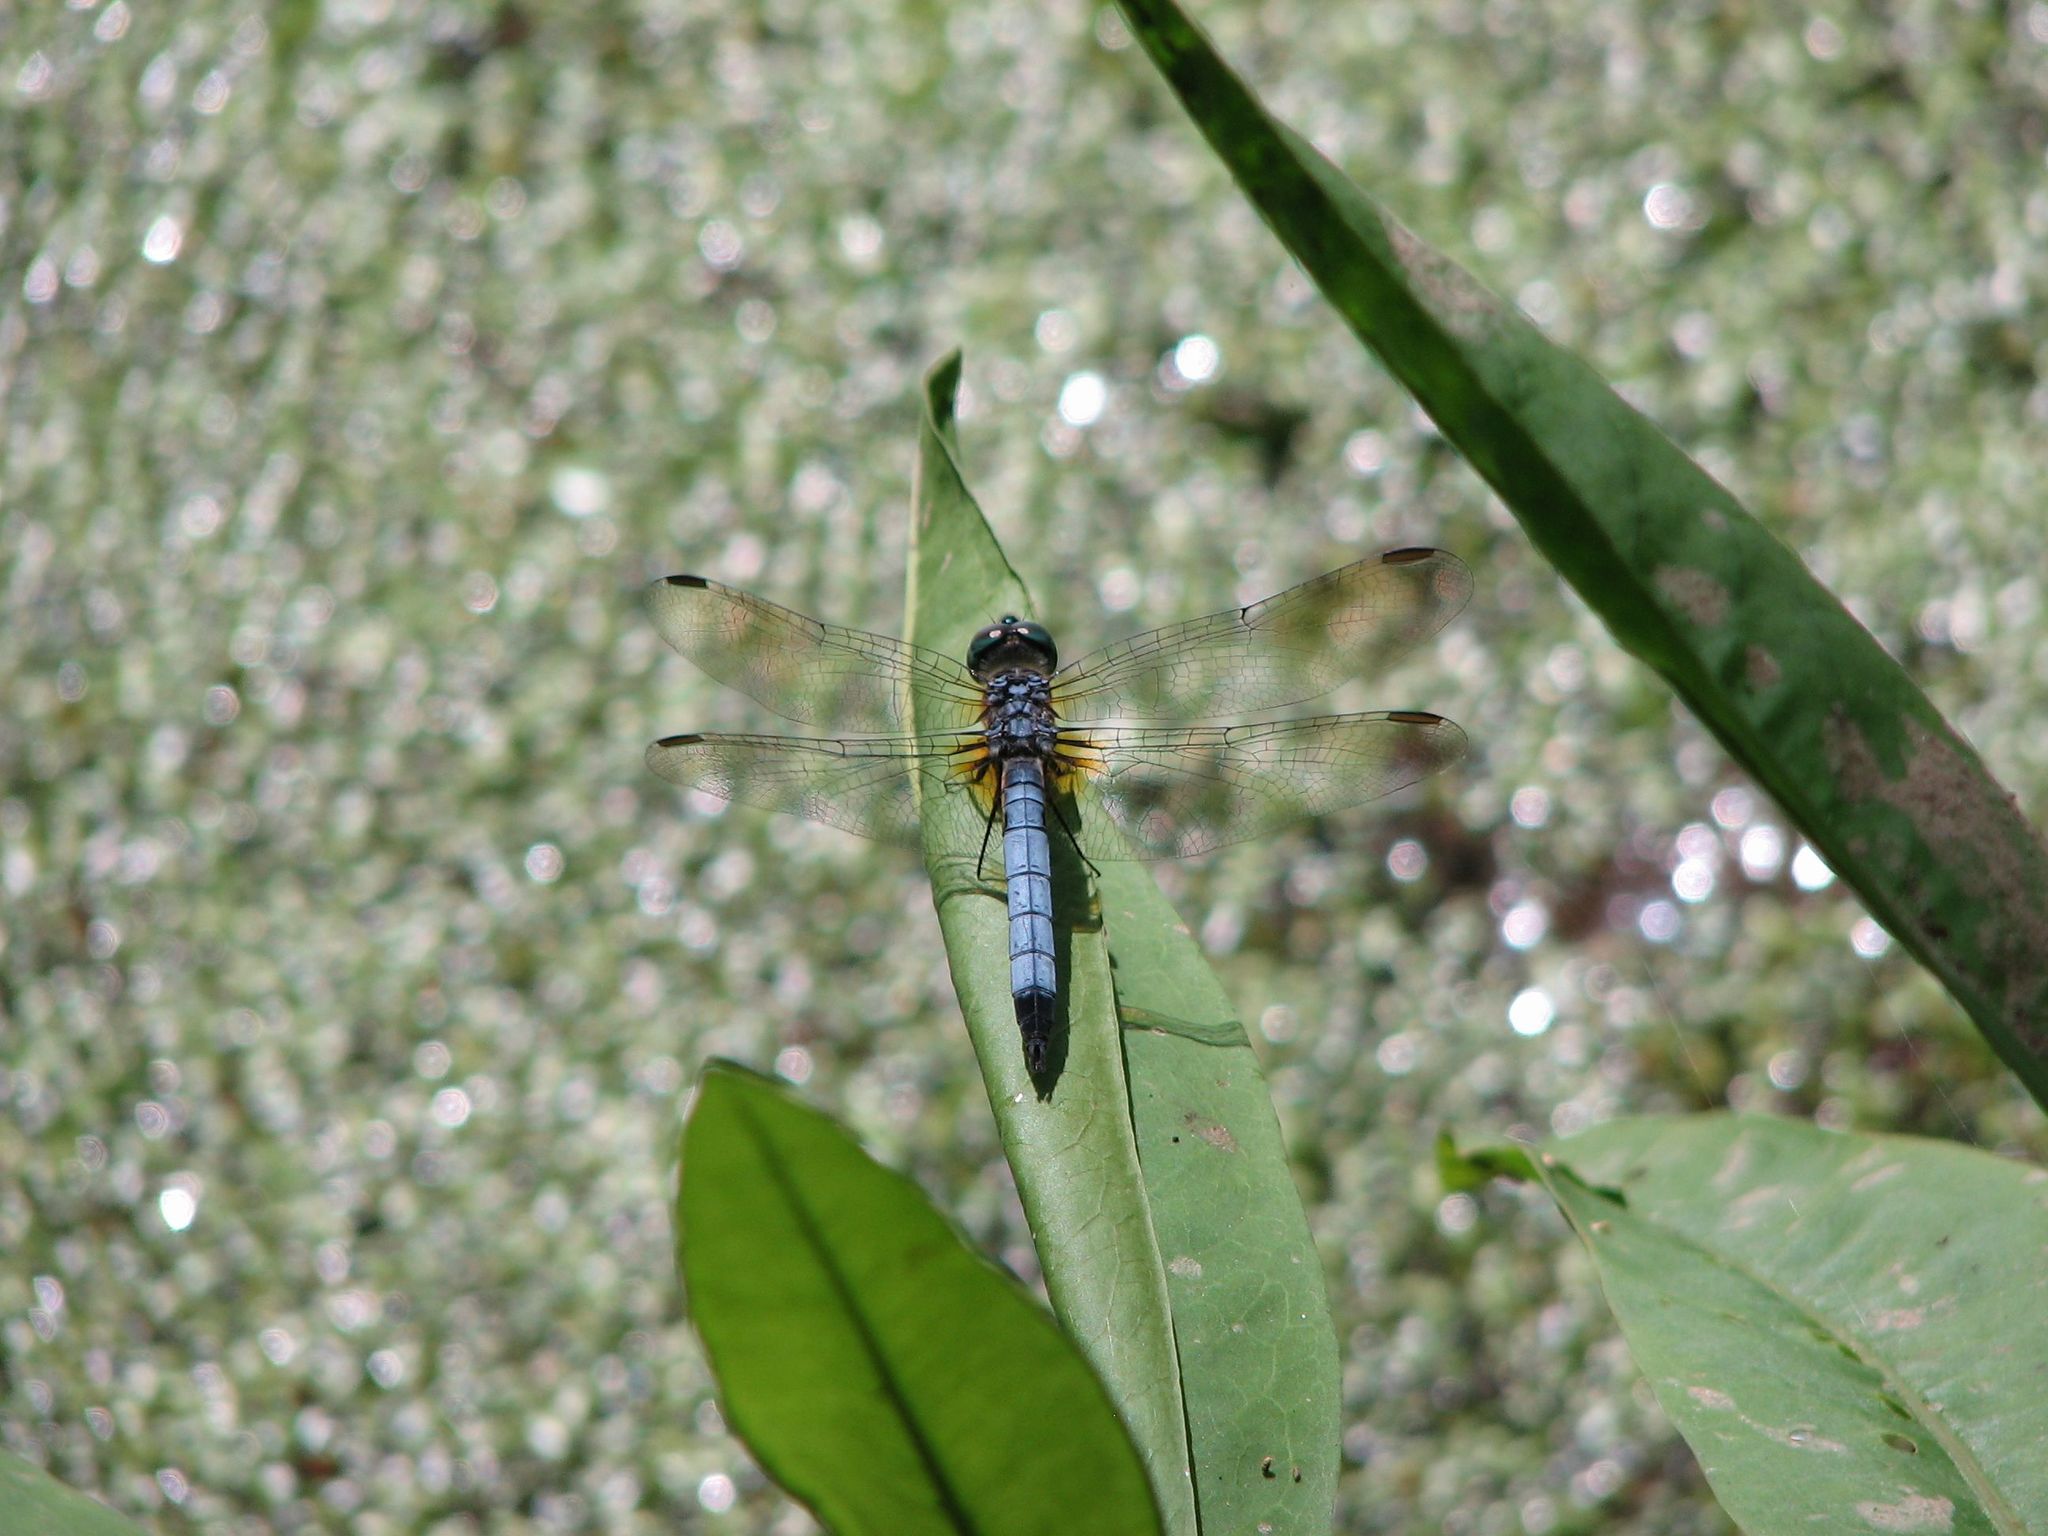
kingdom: Animalia
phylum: Arthropoda
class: Insecta
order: Odonata
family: Libellulidae
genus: Pachydiplax
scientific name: Pachydiplax longipennis
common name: Blue dasher
